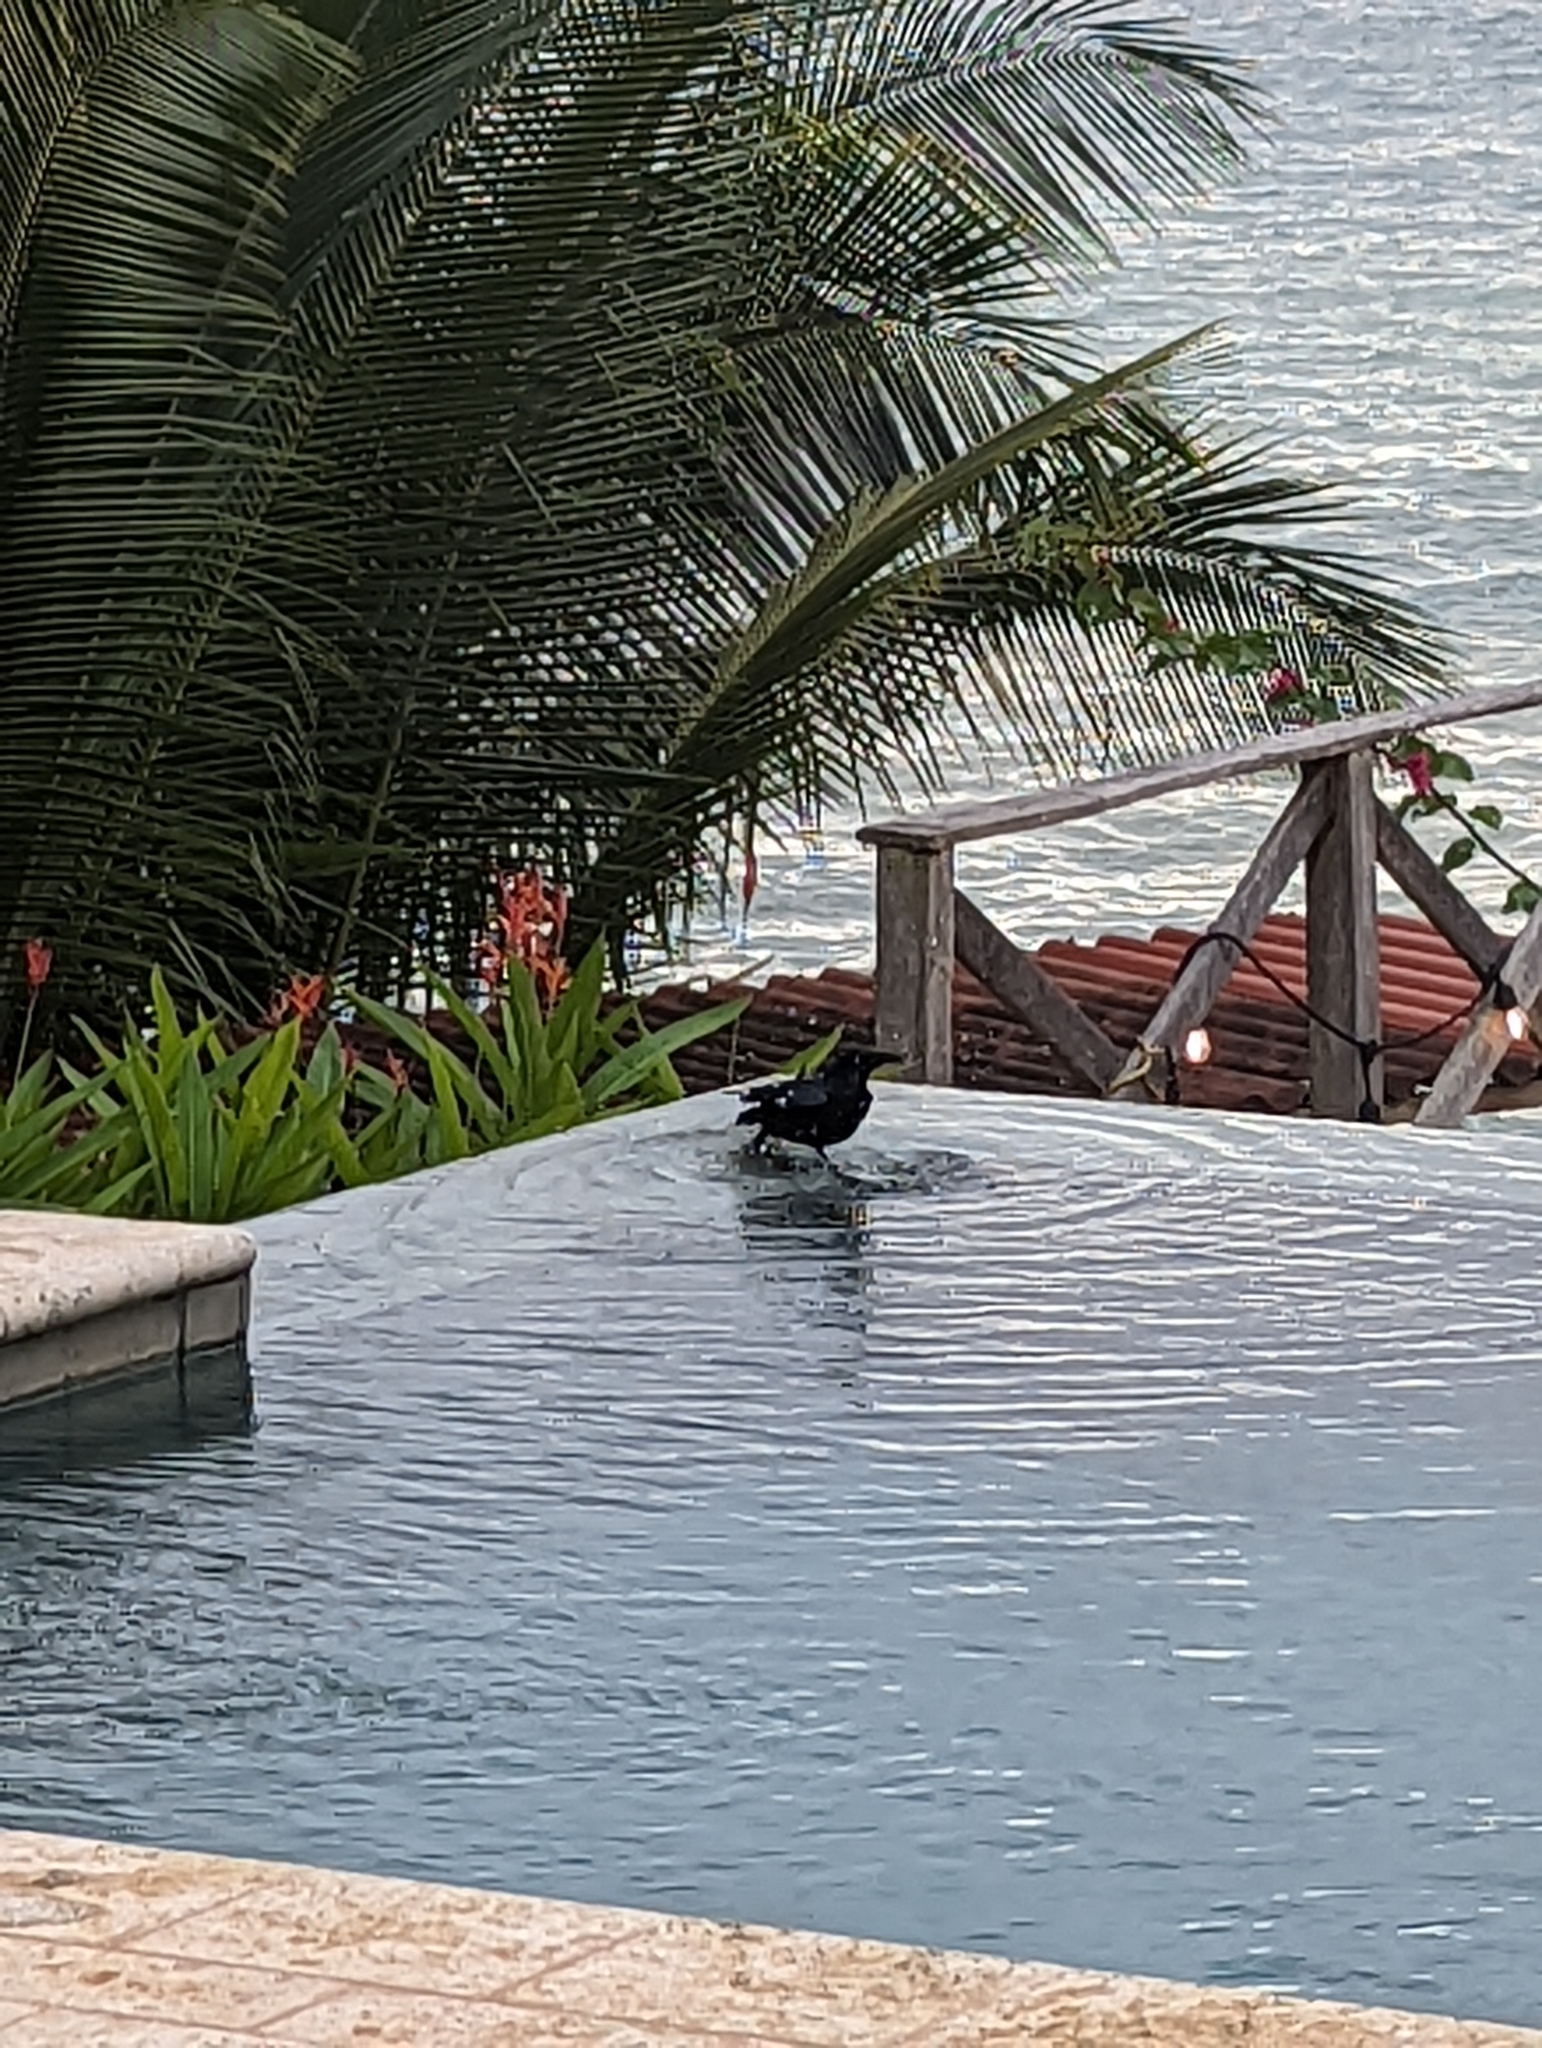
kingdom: Animalia
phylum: Chordata
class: Aves
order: Passeriformes
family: Icteridae
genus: Quiscalus
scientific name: Quiscalus mexicanus
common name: Great-tailed grackle
